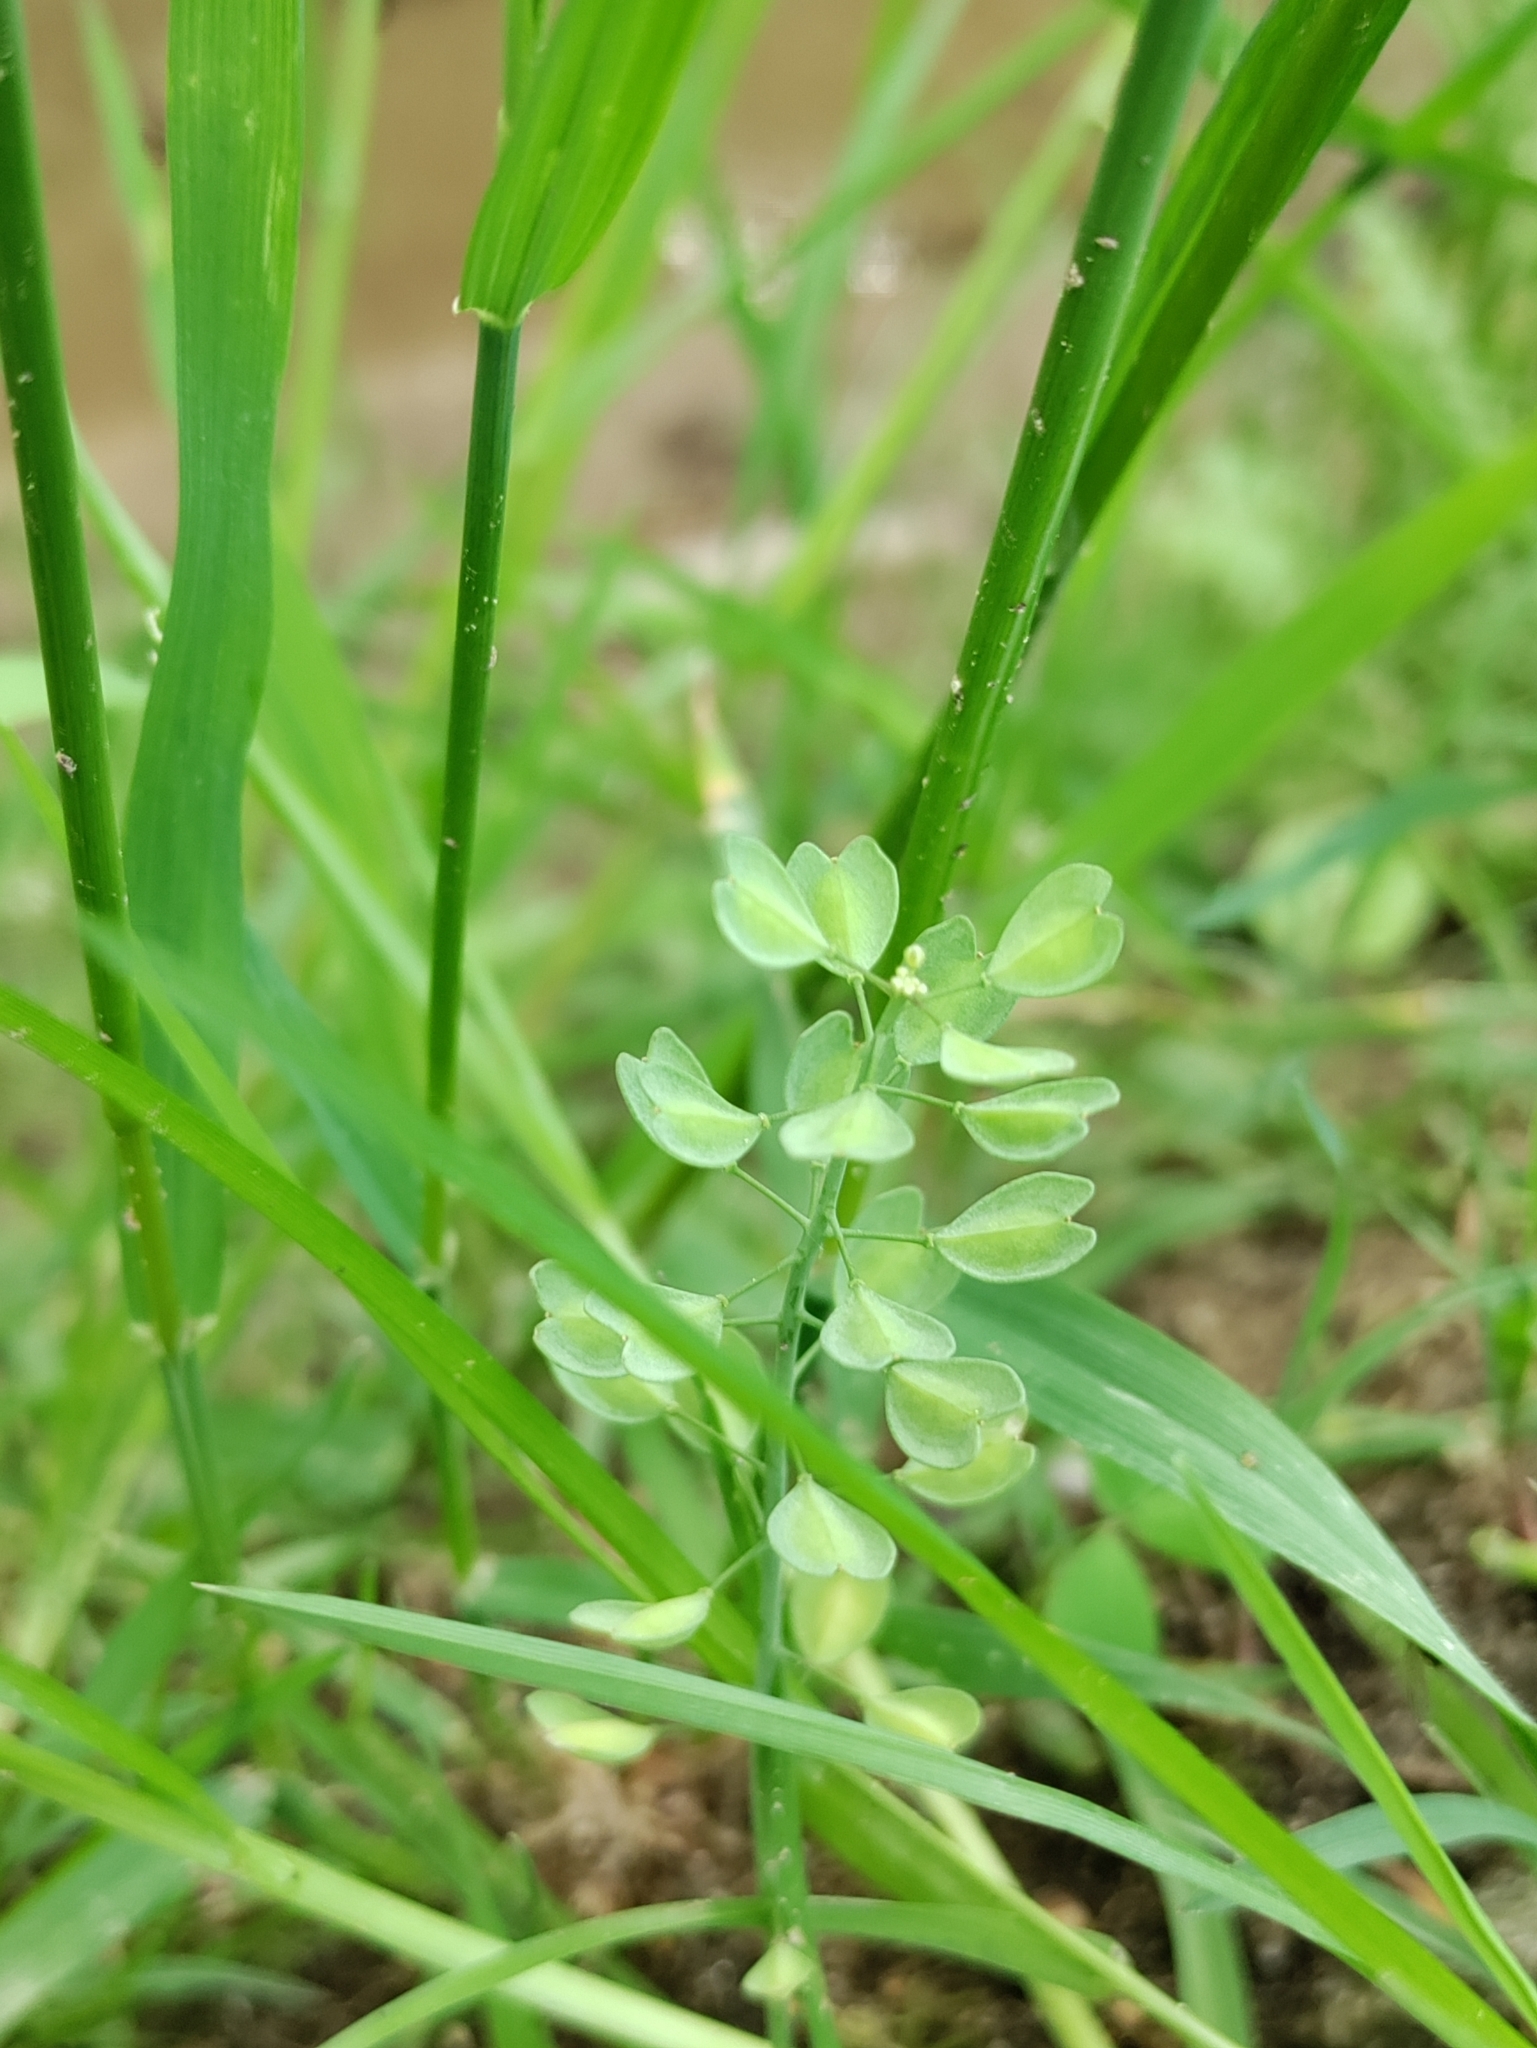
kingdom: Plantae
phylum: Tracheophyta
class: Magnoliopsida
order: Brassicales
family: Brassicaceae
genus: Noccaea
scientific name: Noccaea perfoliata
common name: Perfoliate pennycress
